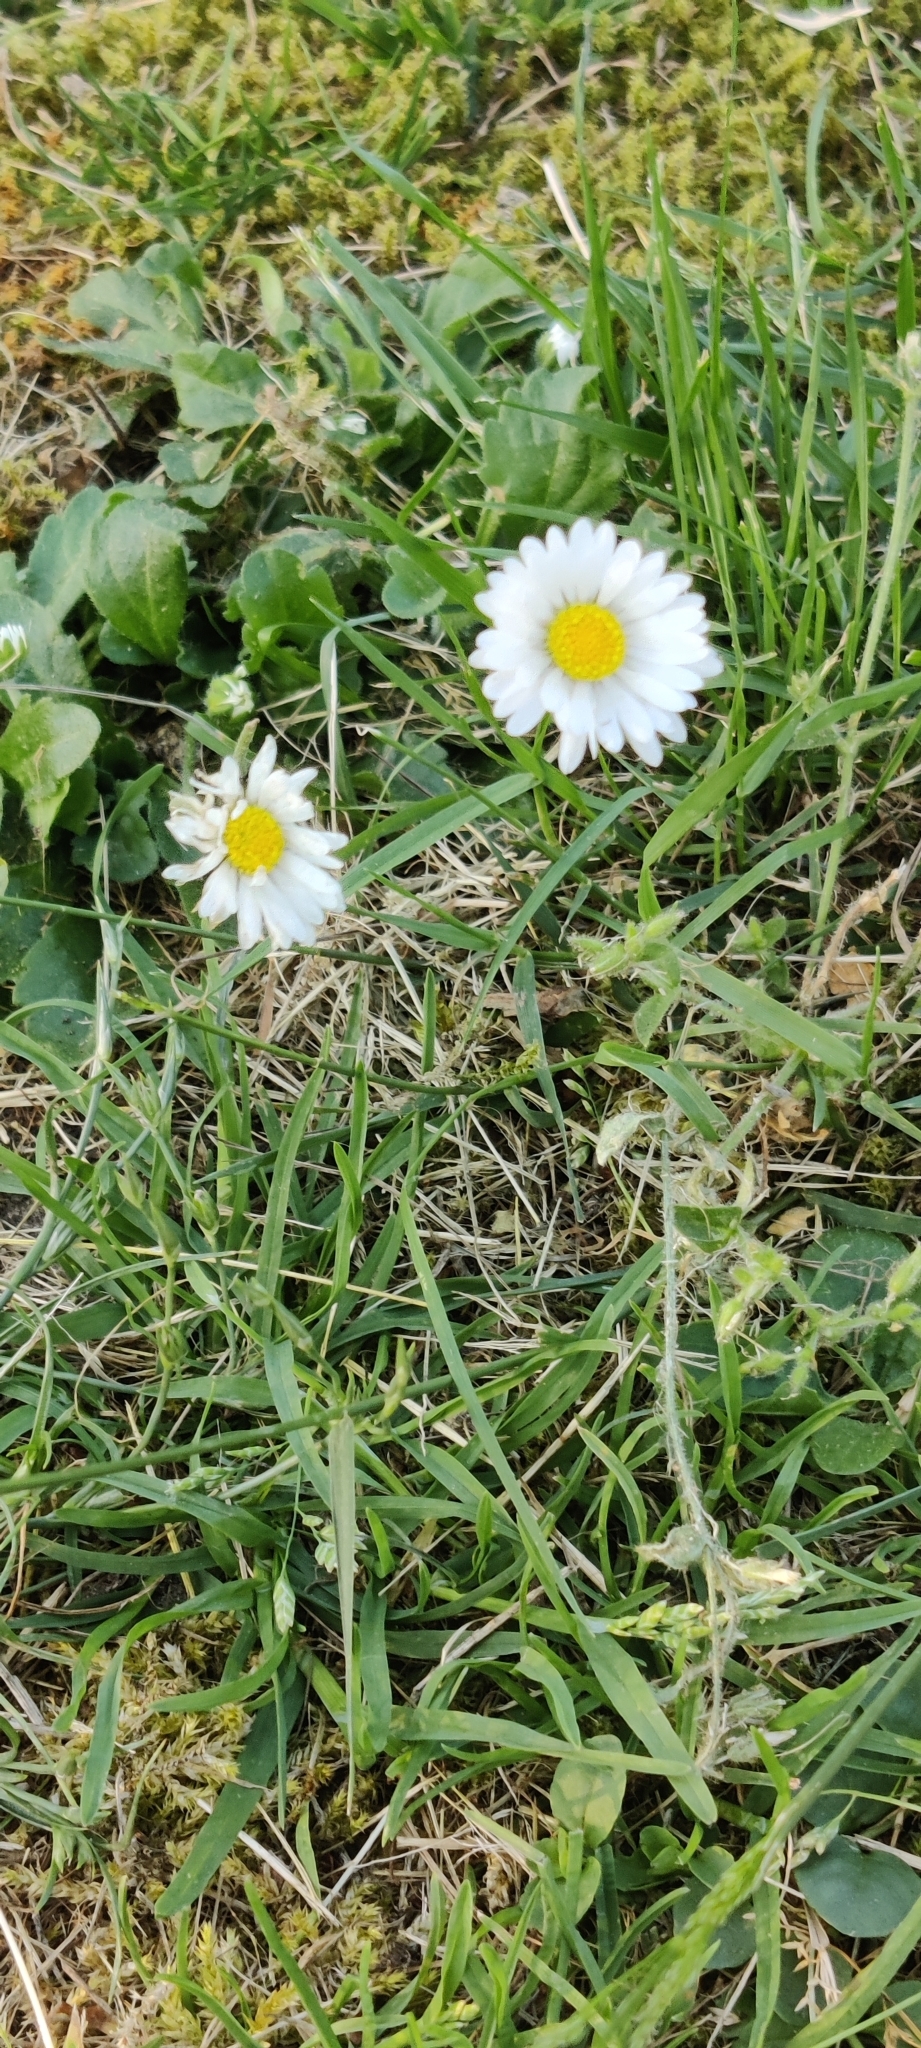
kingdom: Plantae
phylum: Tracheophyta
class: Magnoliopsida
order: Asterales
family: Asteraceae
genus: Bellis
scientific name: Bellis perennis
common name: Lawndaisy
